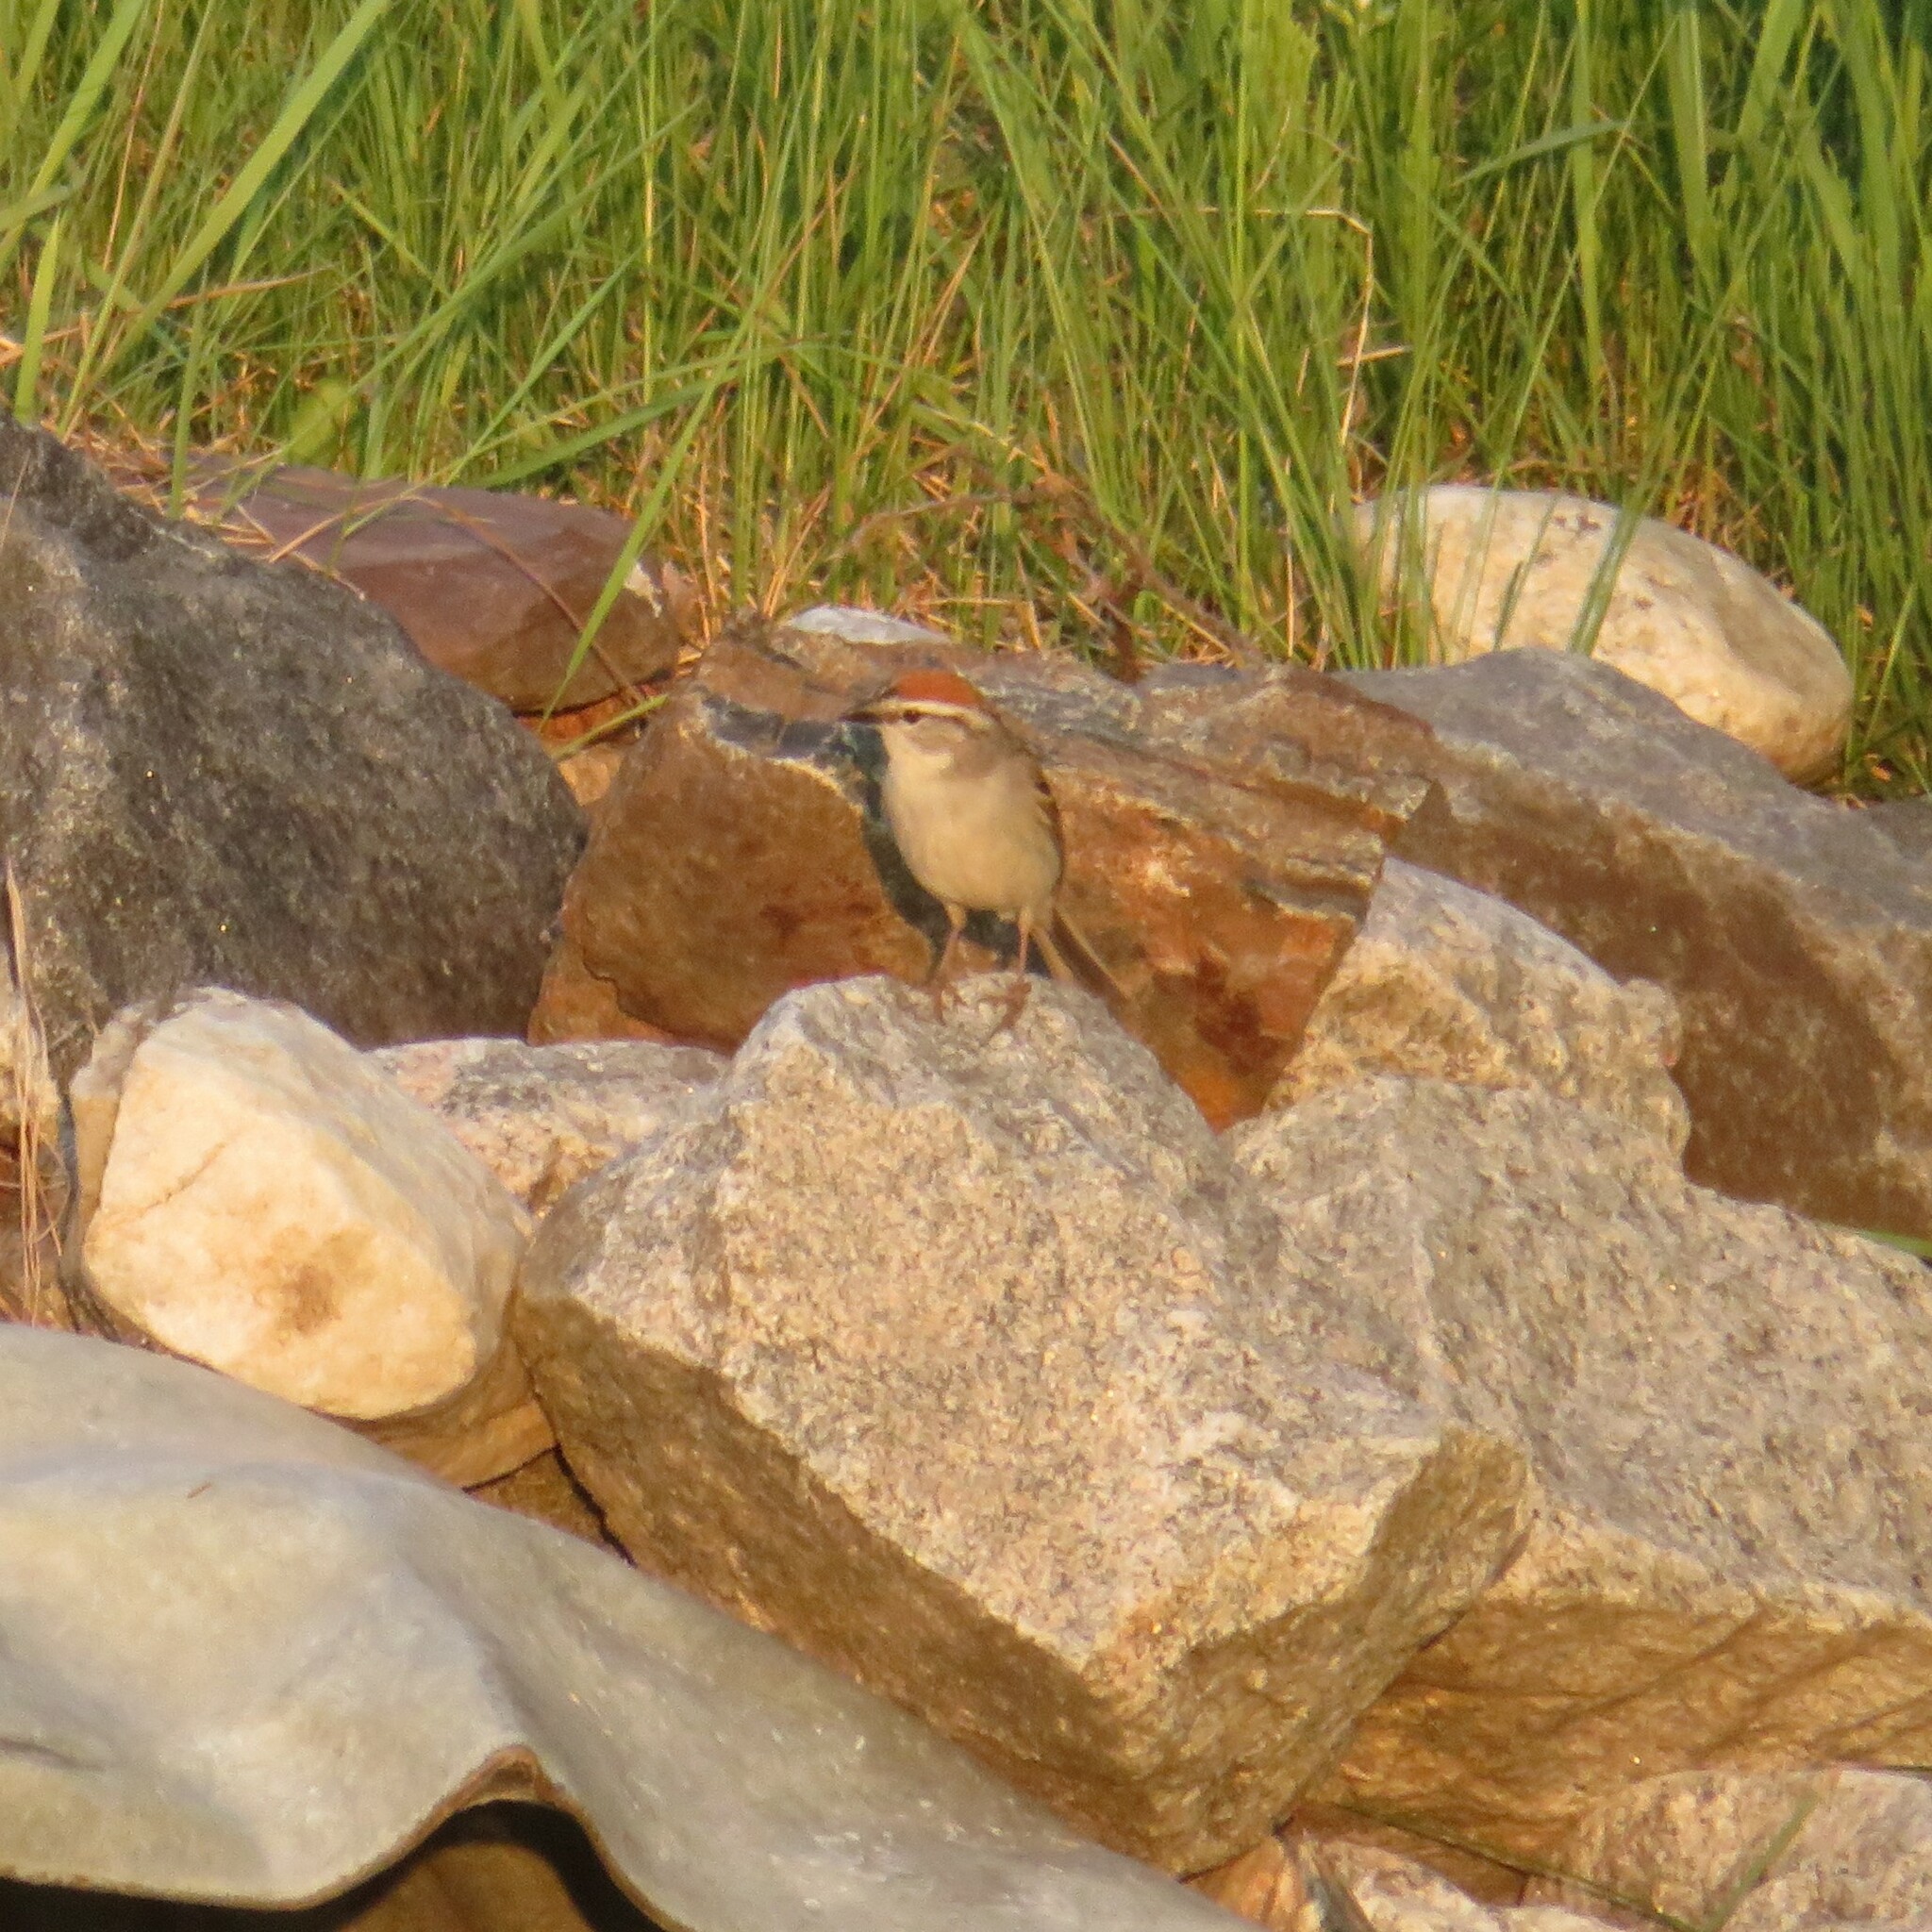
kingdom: Animalia
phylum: Chordata
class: Aves
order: Passeriformes
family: Passerellidae
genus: Spizella
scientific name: Spizella passerina
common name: Chipping sparrow
